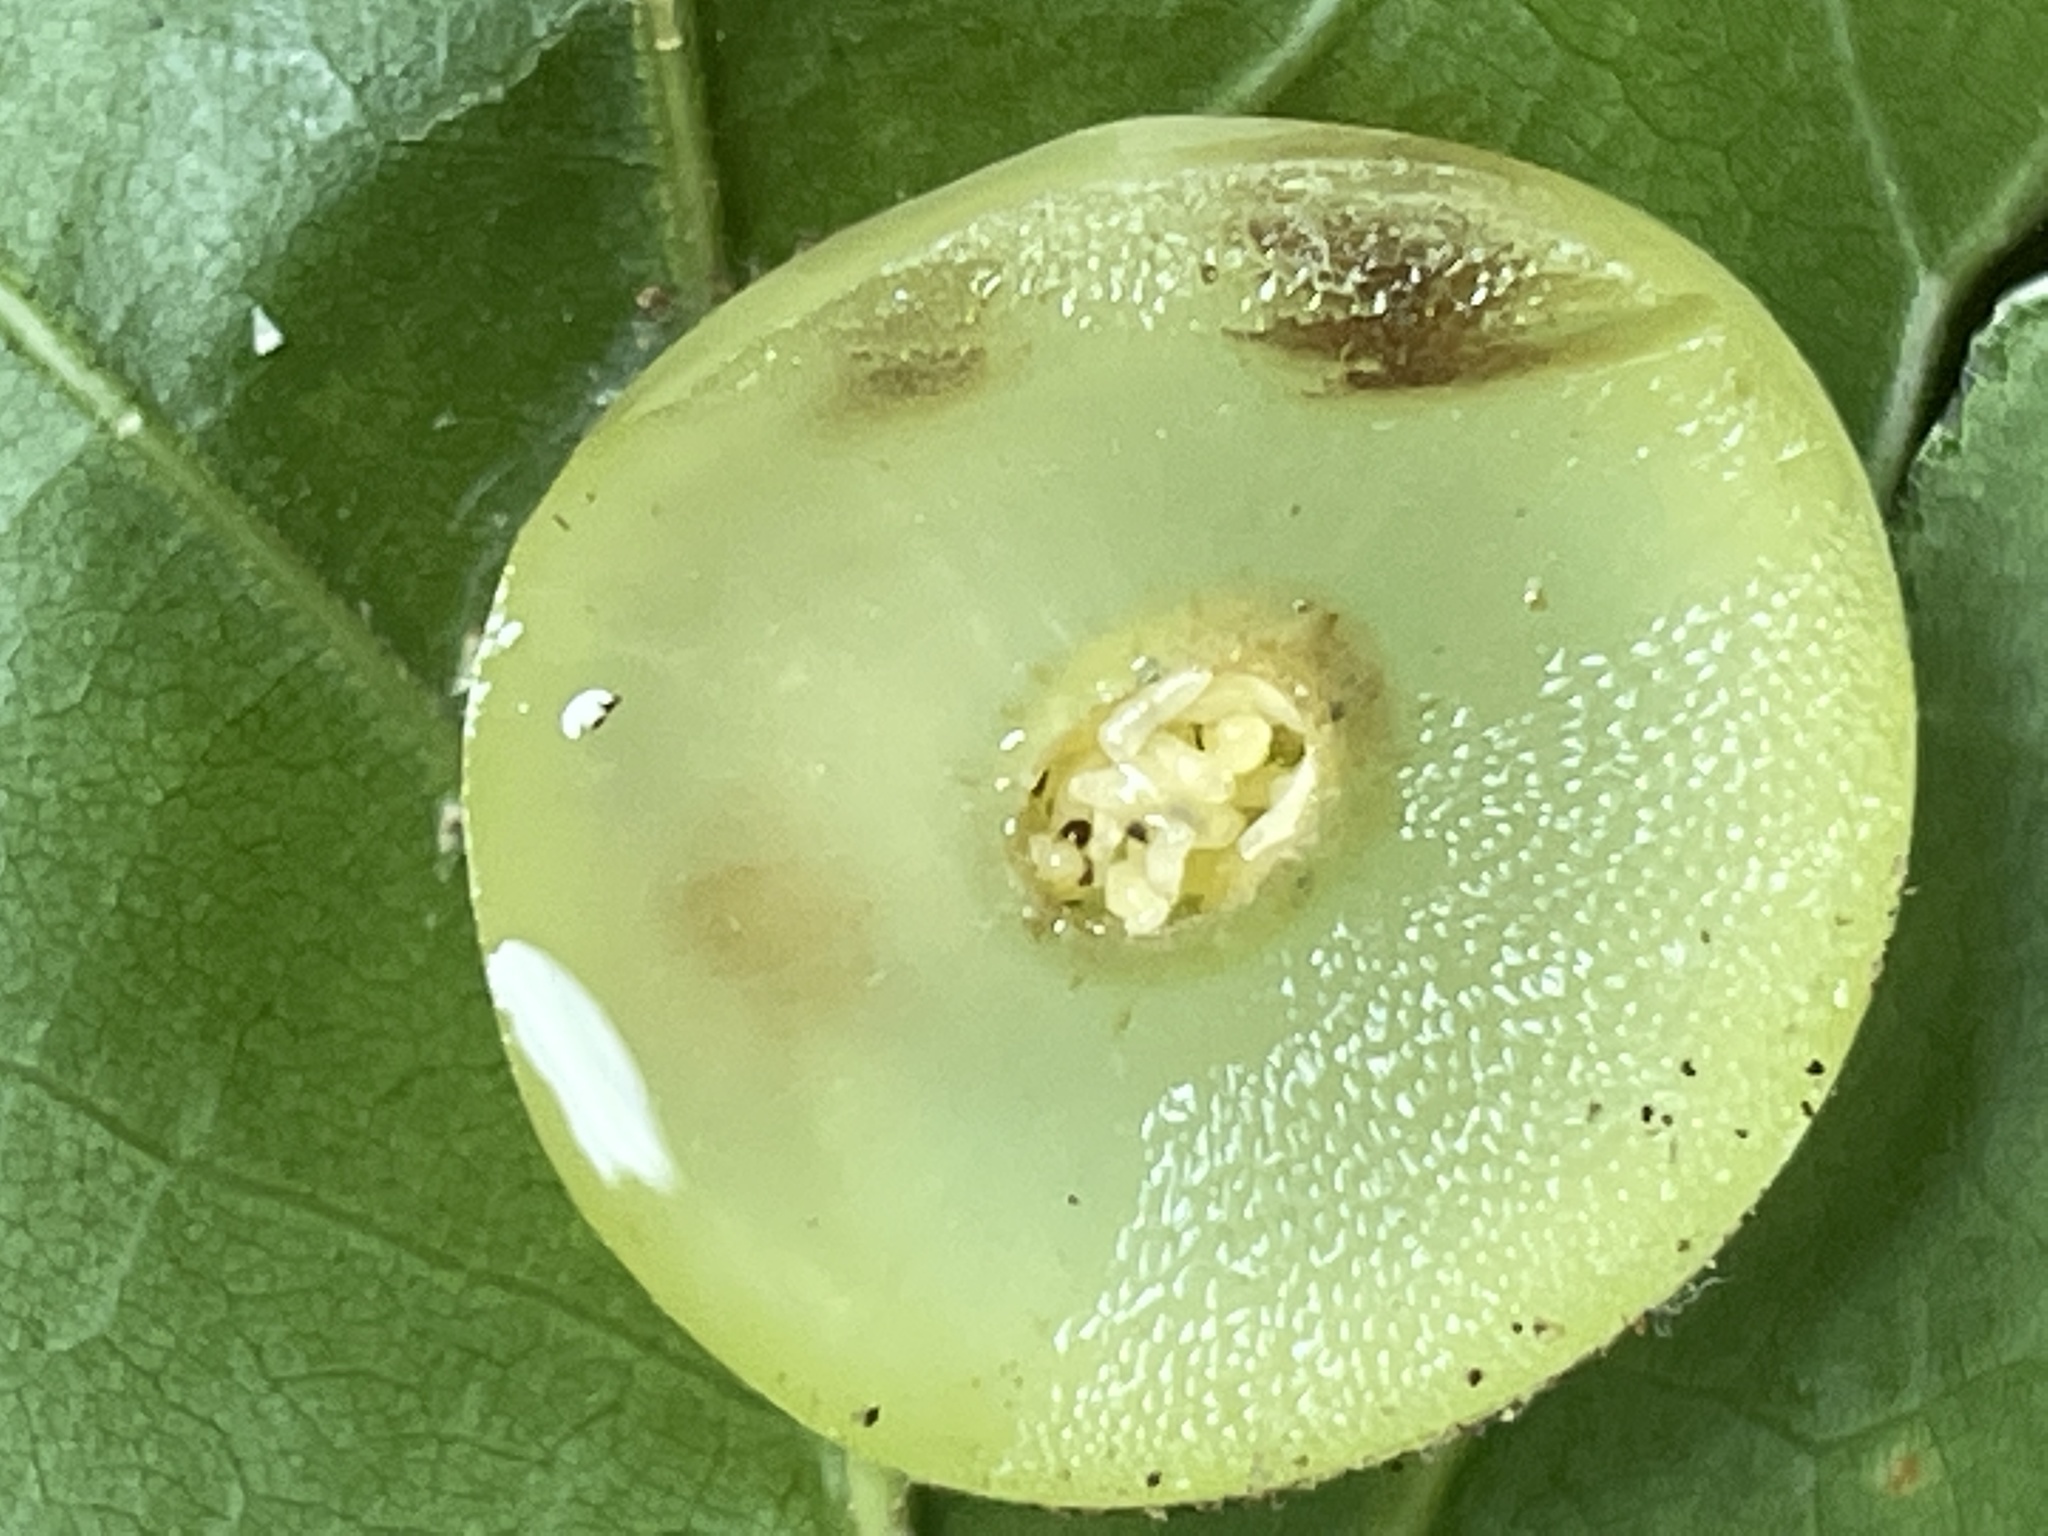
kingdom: Animalia
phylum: Arthropoda
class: Insecta
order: Hymenoptera
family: Cynipidae
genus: Amphibolips
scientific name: Amphibolips
